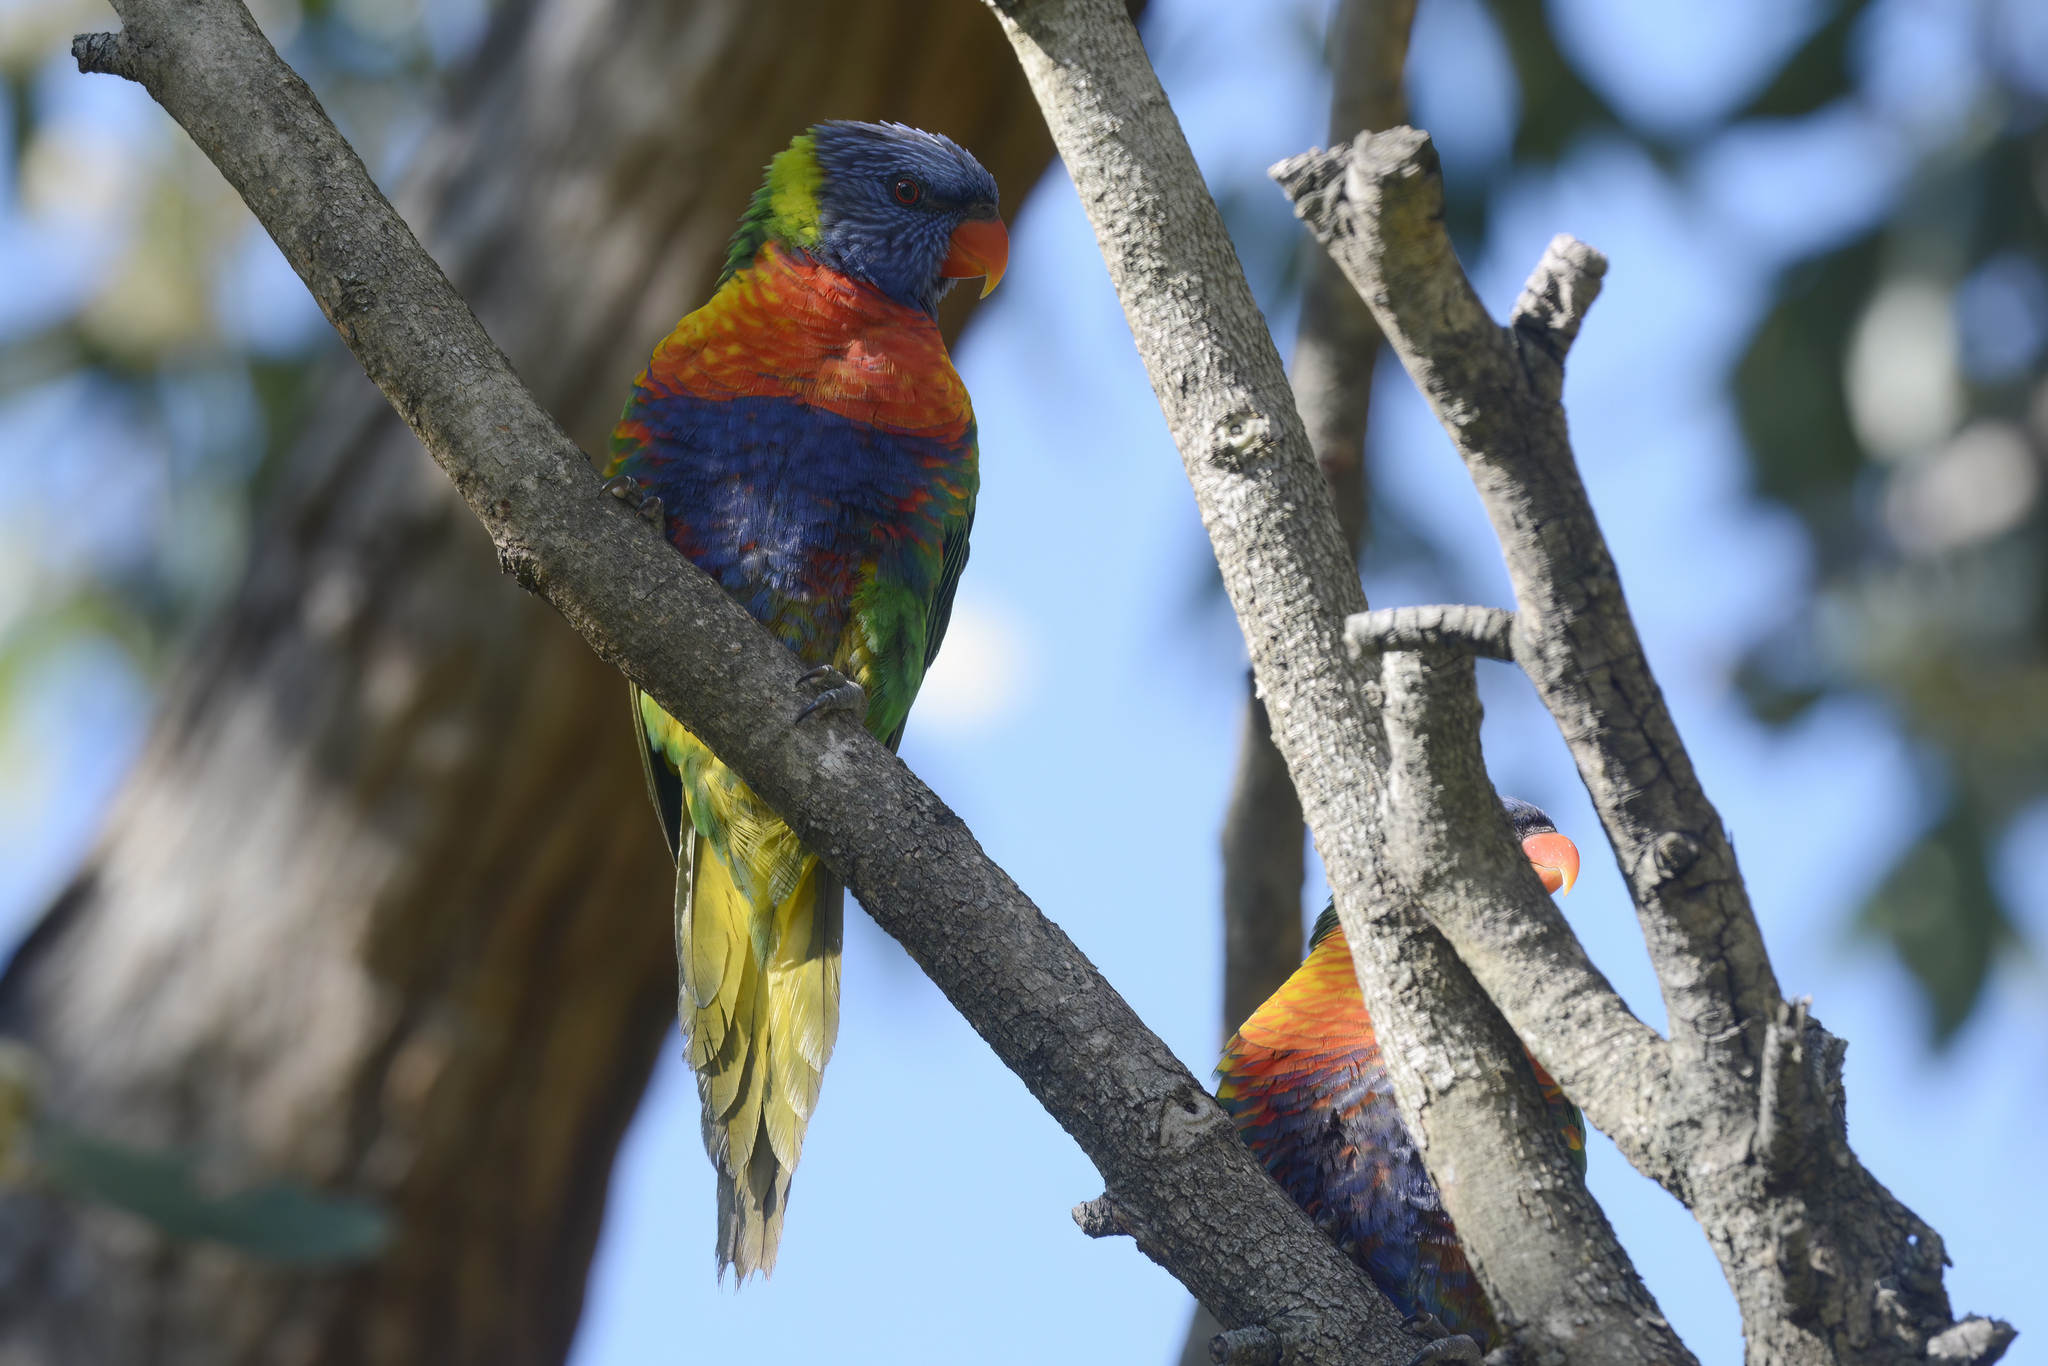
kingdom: Animalia
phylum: Chordata
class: Aves
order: Psittaciformes
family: Psittacidae
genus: Trichoglossus
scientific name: Trichoglossus haematodus
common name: Coconut lorikeet
